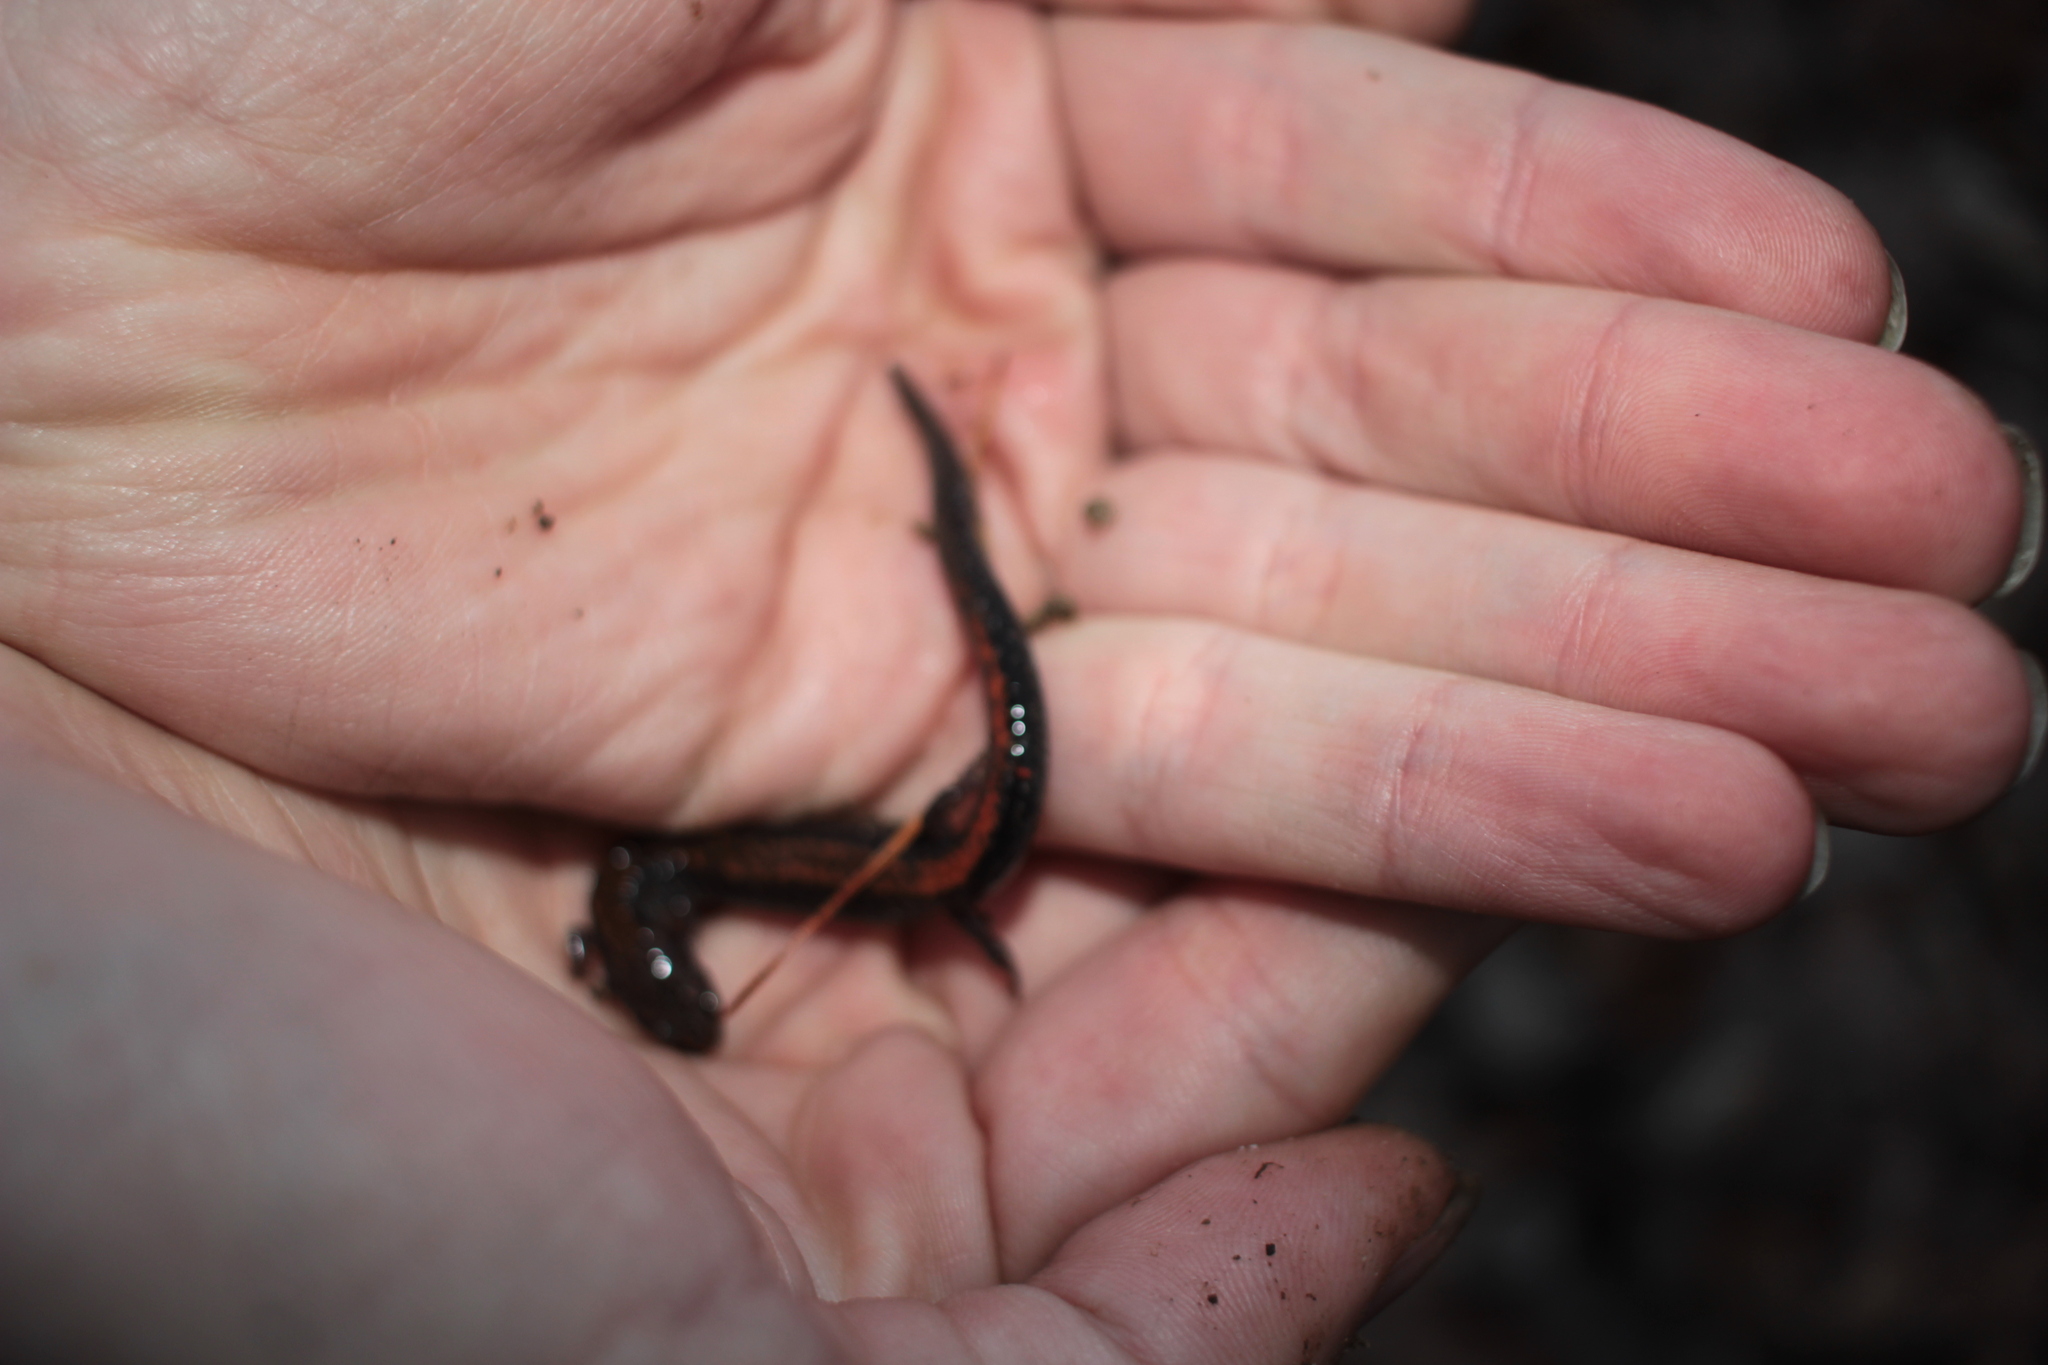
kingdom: Animalia
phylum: Chordata
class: Amphibia
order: Caudata
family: Plethodontidae
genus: Plethodon
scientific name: Plethodon cinereus
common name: Redback salamander
